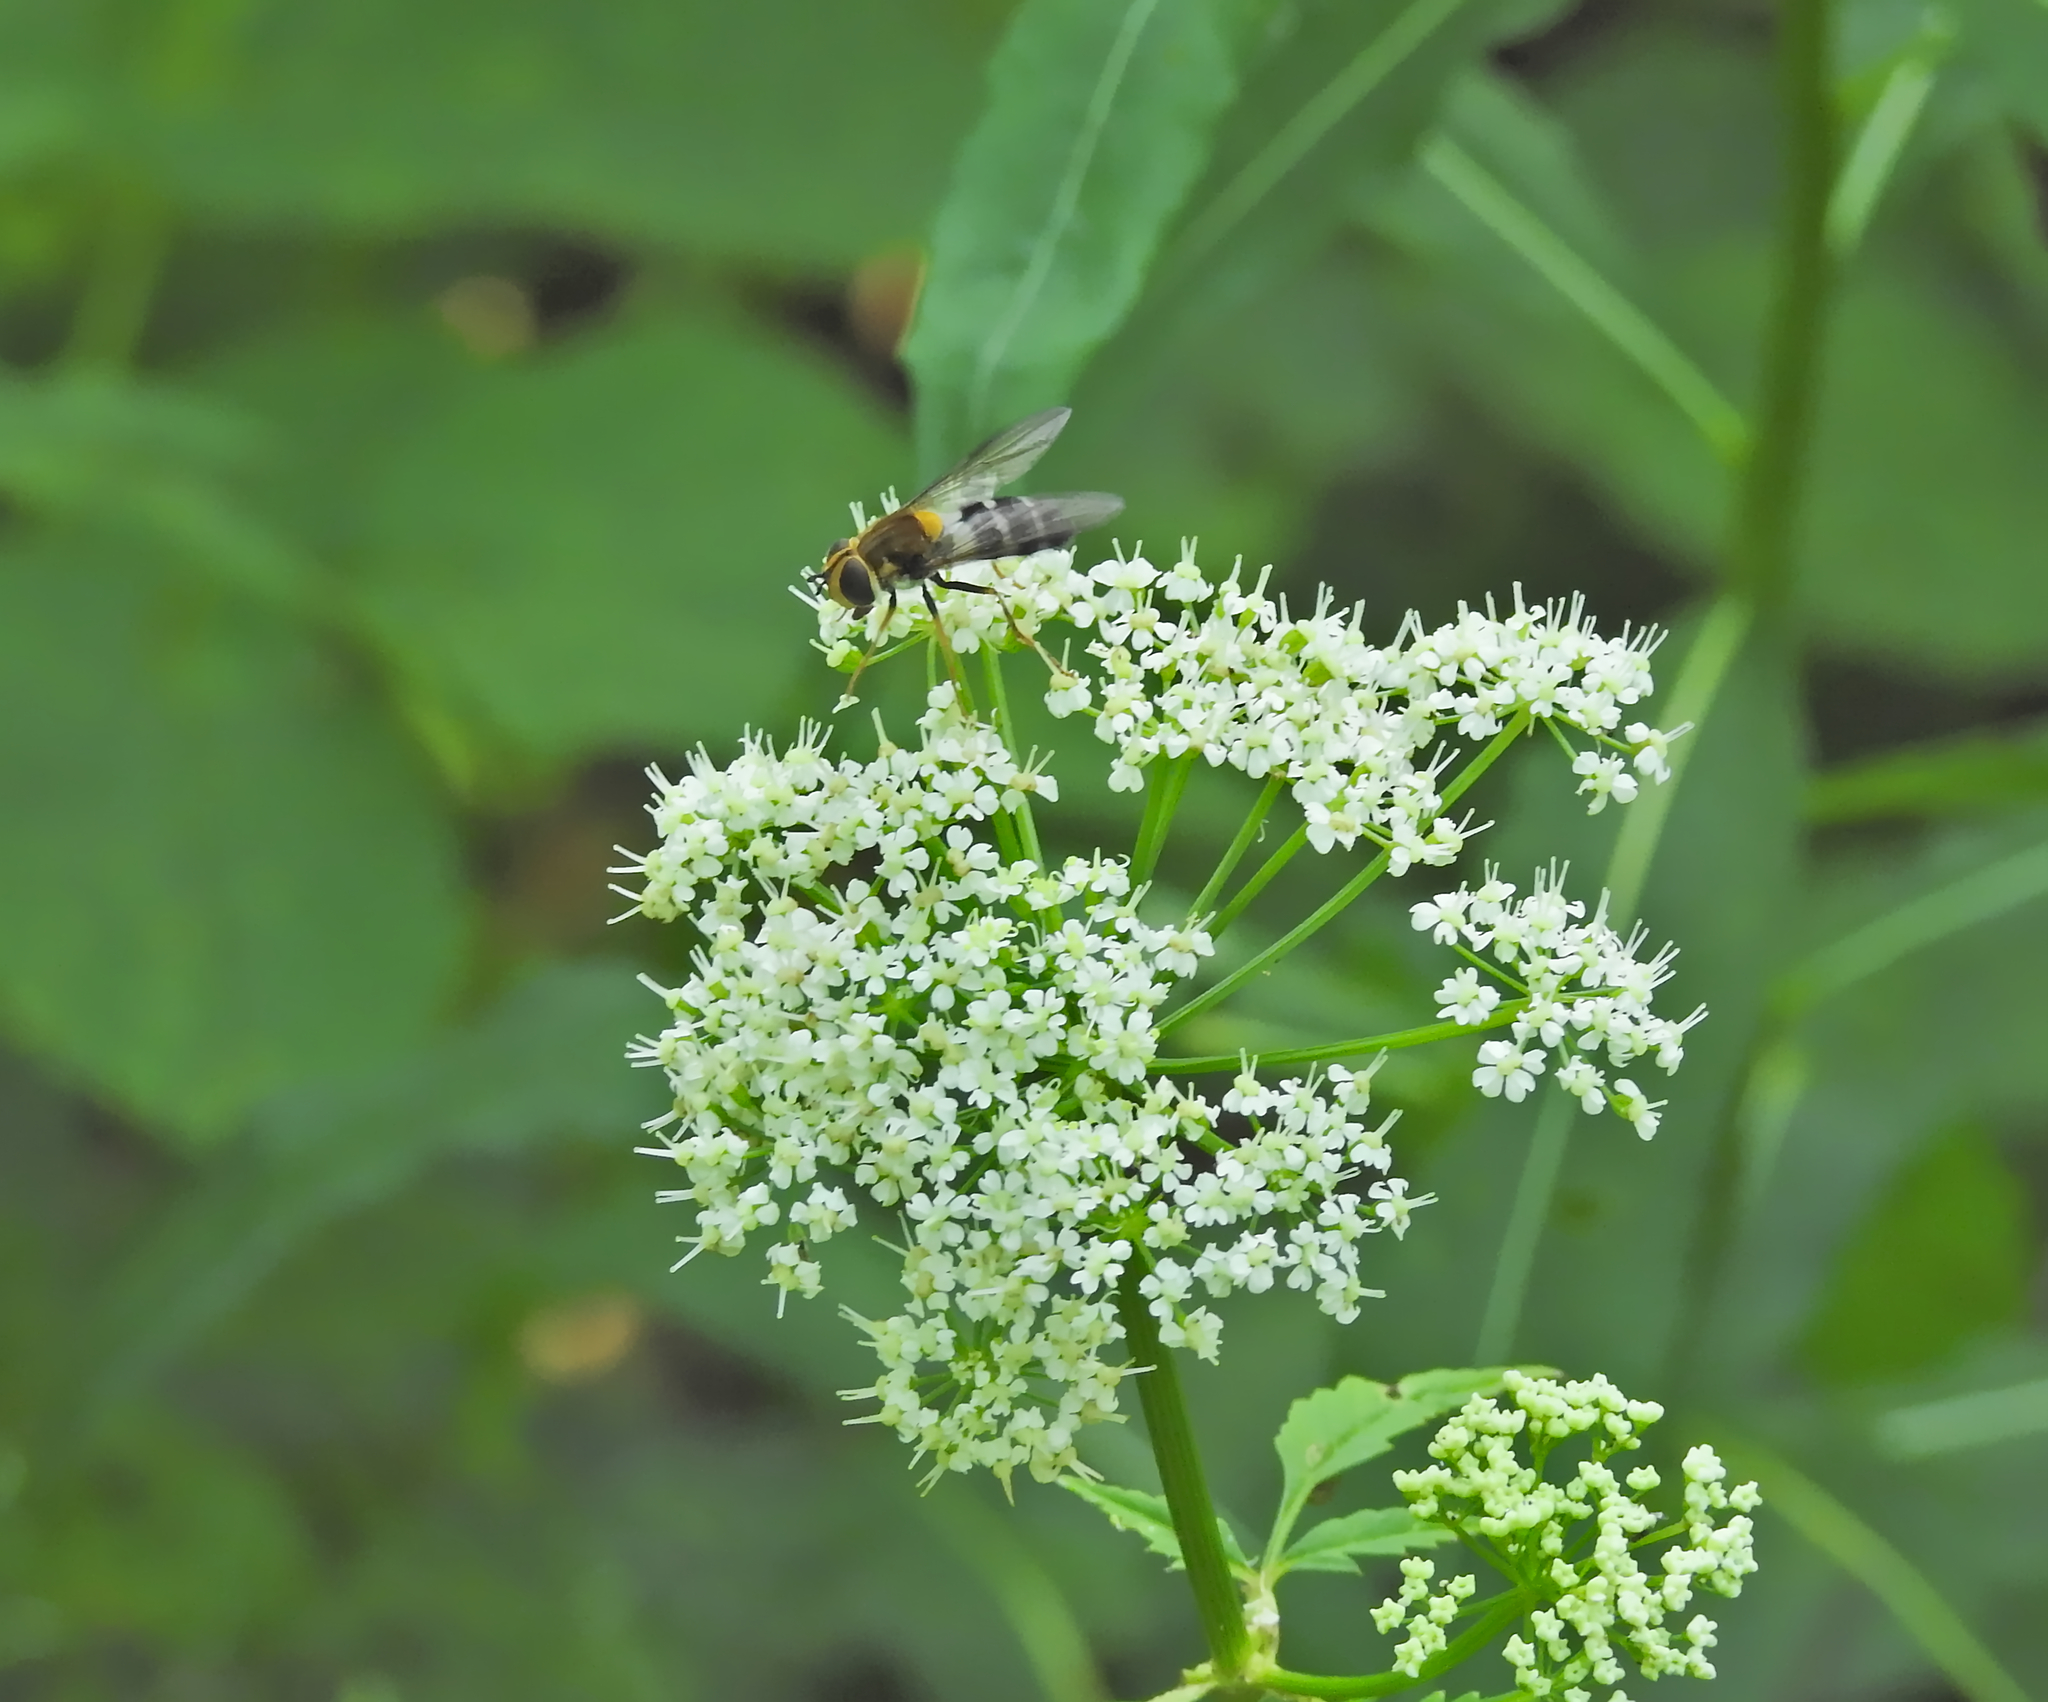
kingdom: Animalia
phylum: Arthropoda
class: Insecta
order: Diptera
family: Syrphidae
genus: Leucozona
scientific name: Leucozona glaucia
